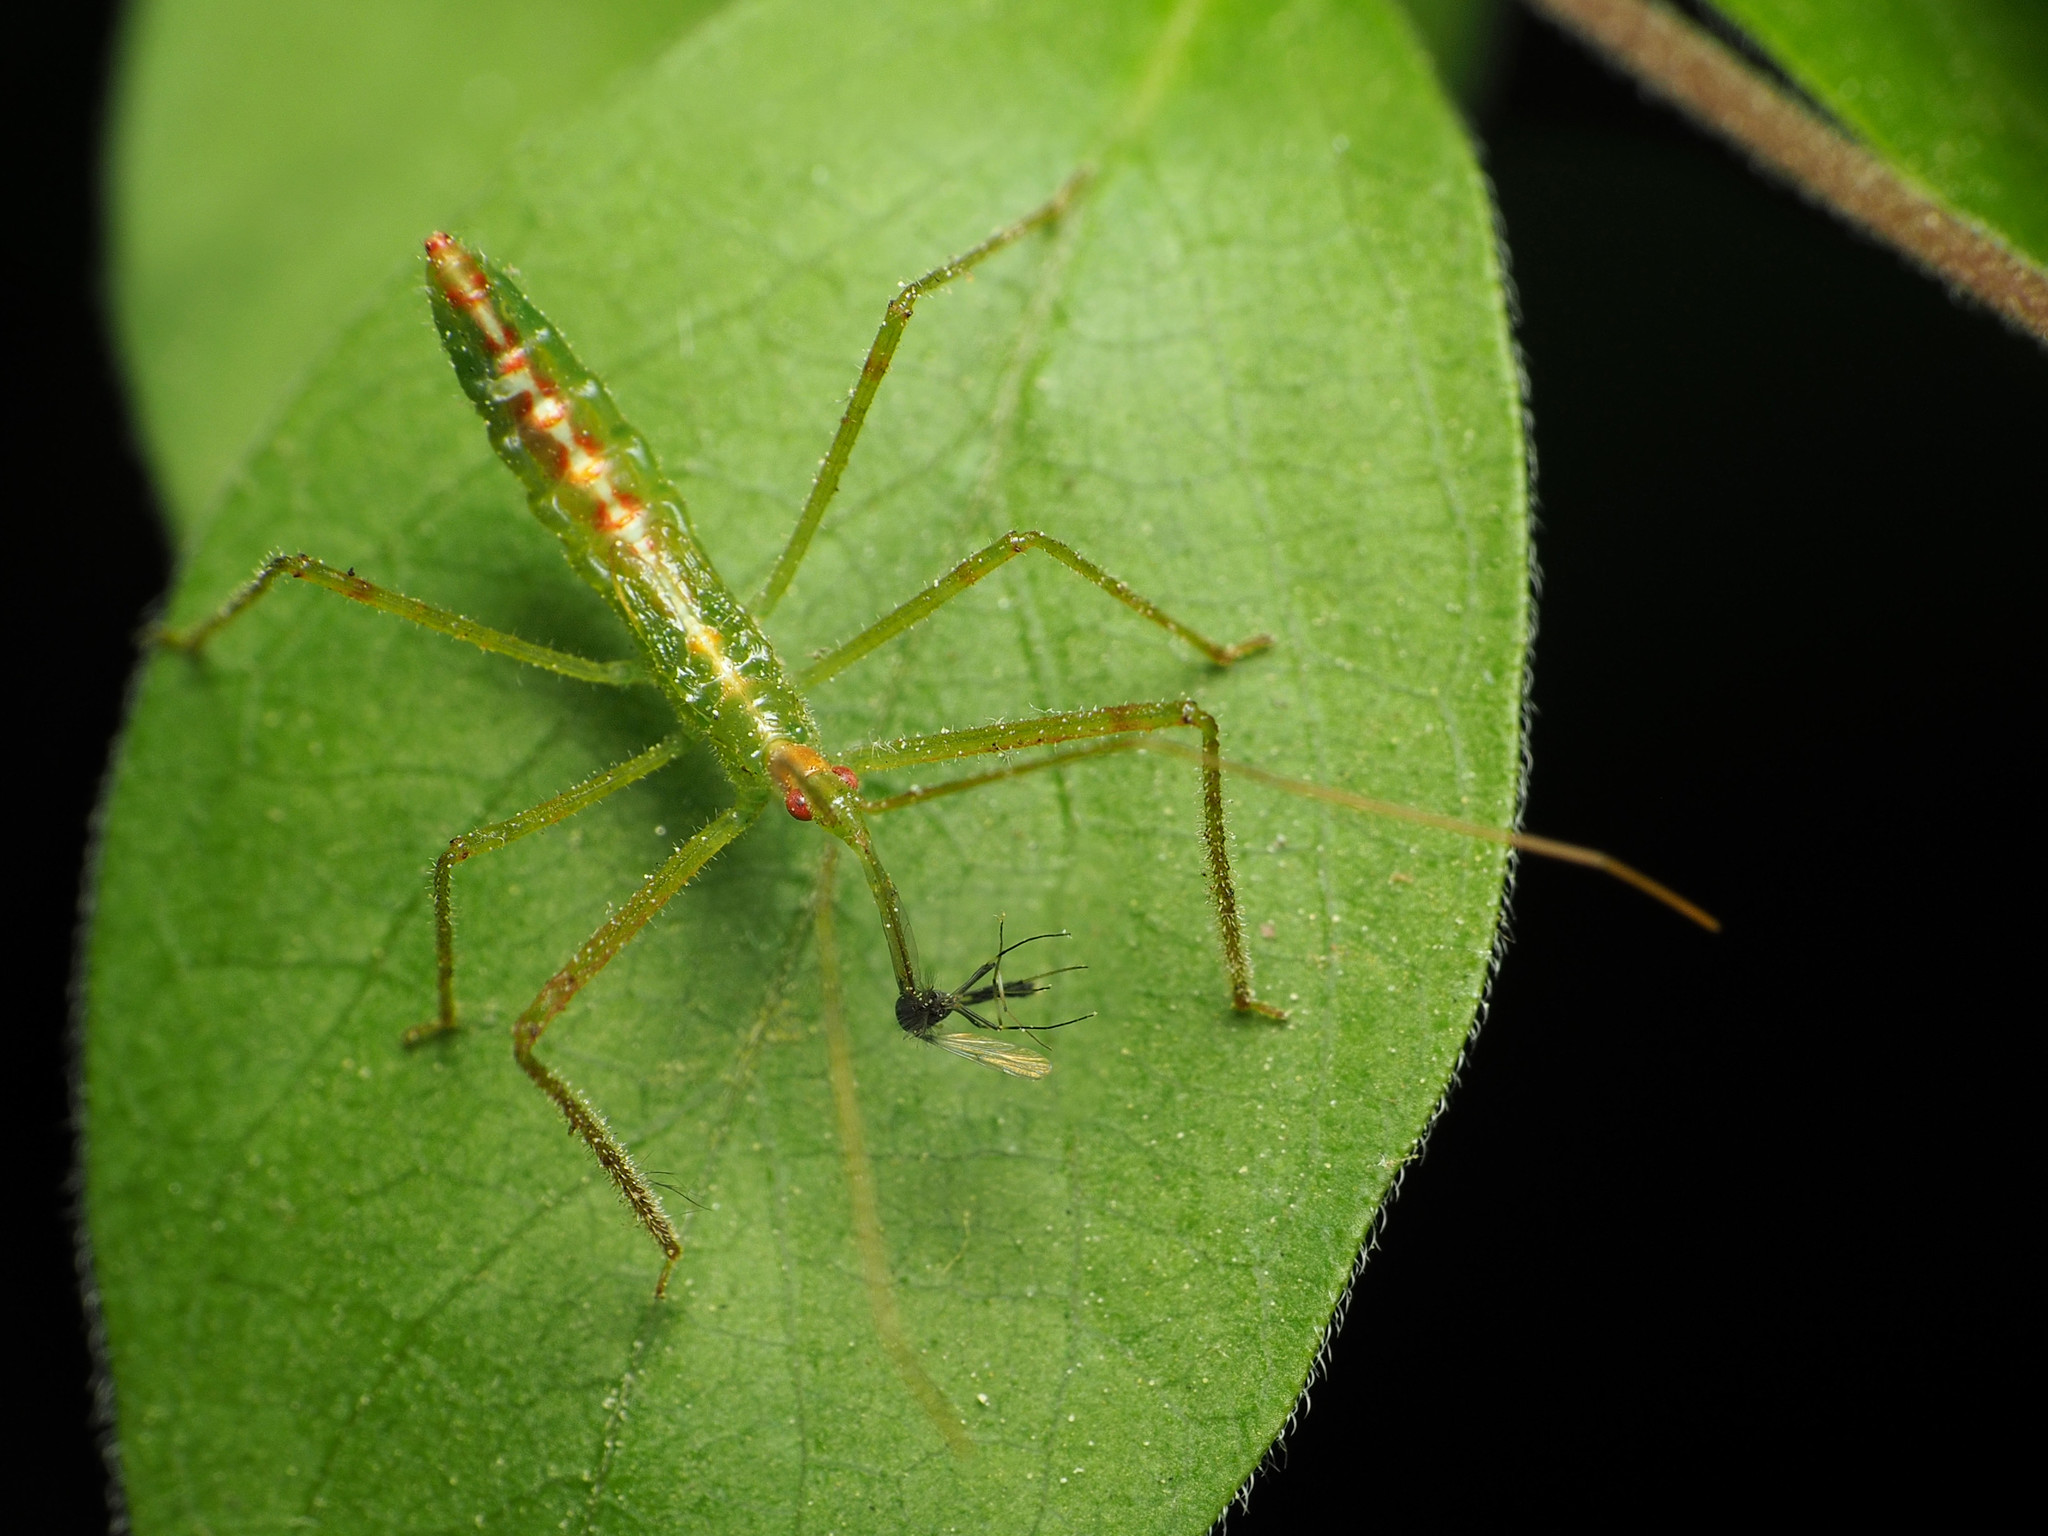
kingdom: Animalia
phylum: Arthropoda
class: Insecta
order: Hemiptera
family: Reduviidae
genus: Zelus
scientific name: Zelus luridus
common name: Pale green assassin bug
